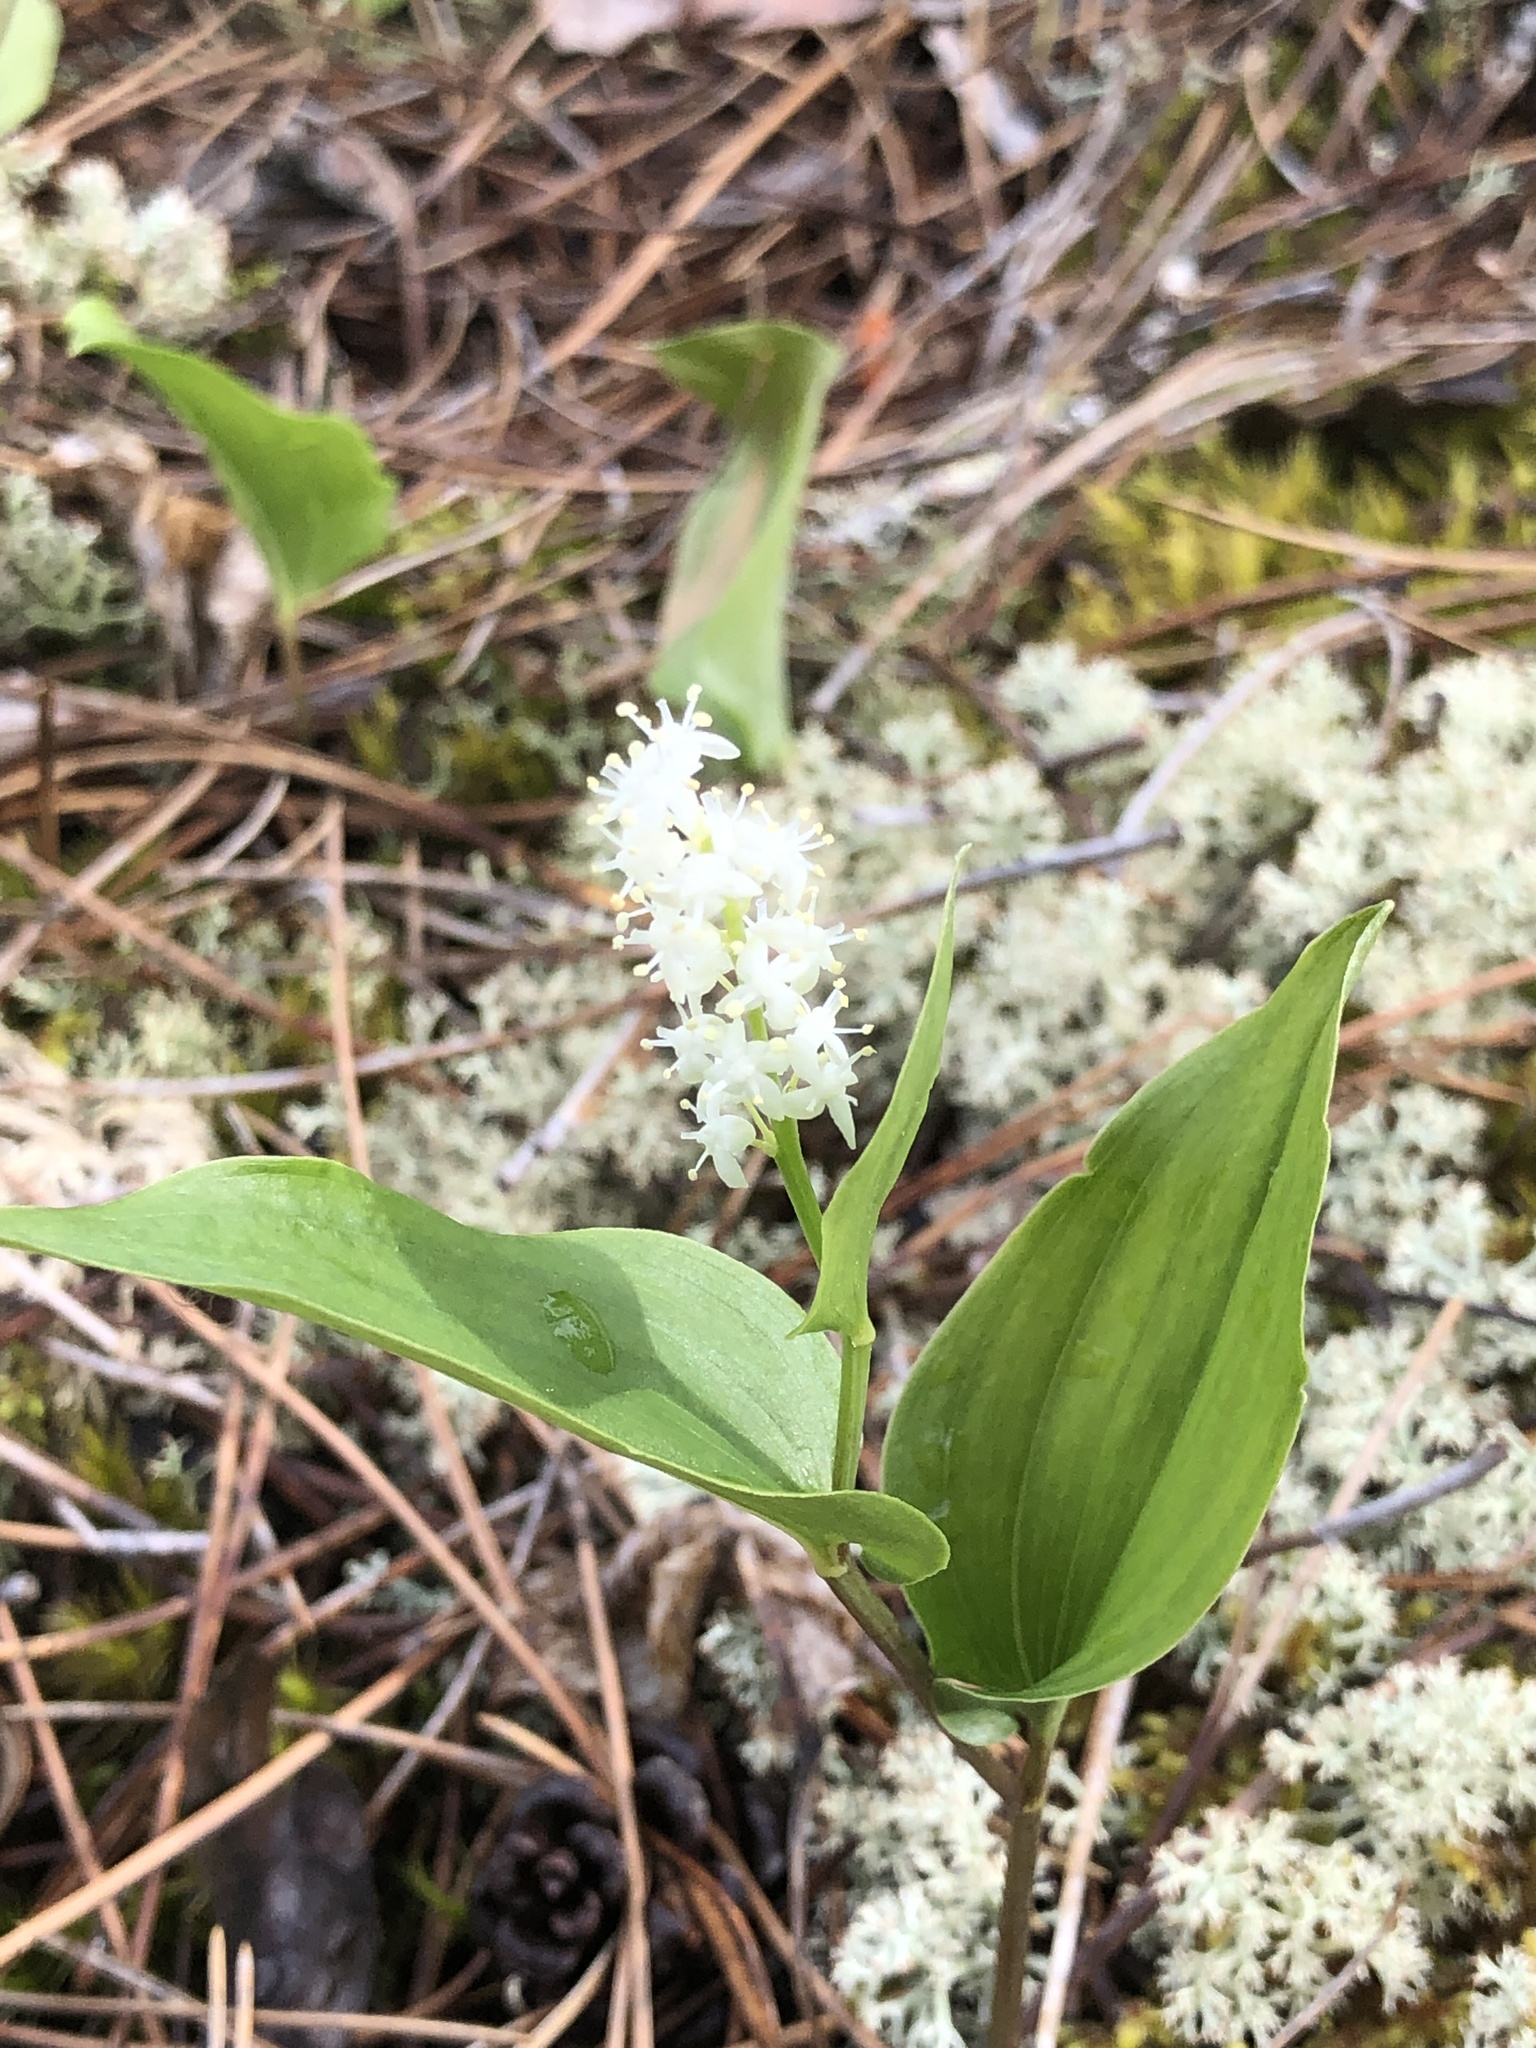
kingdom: Plantae
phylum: Tracheophyta
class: Liliopsida
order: Asparagales
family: Asparagaceae
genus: Maianthemum
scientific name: Maianthemum canadense
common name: False lily-of-the-valley
